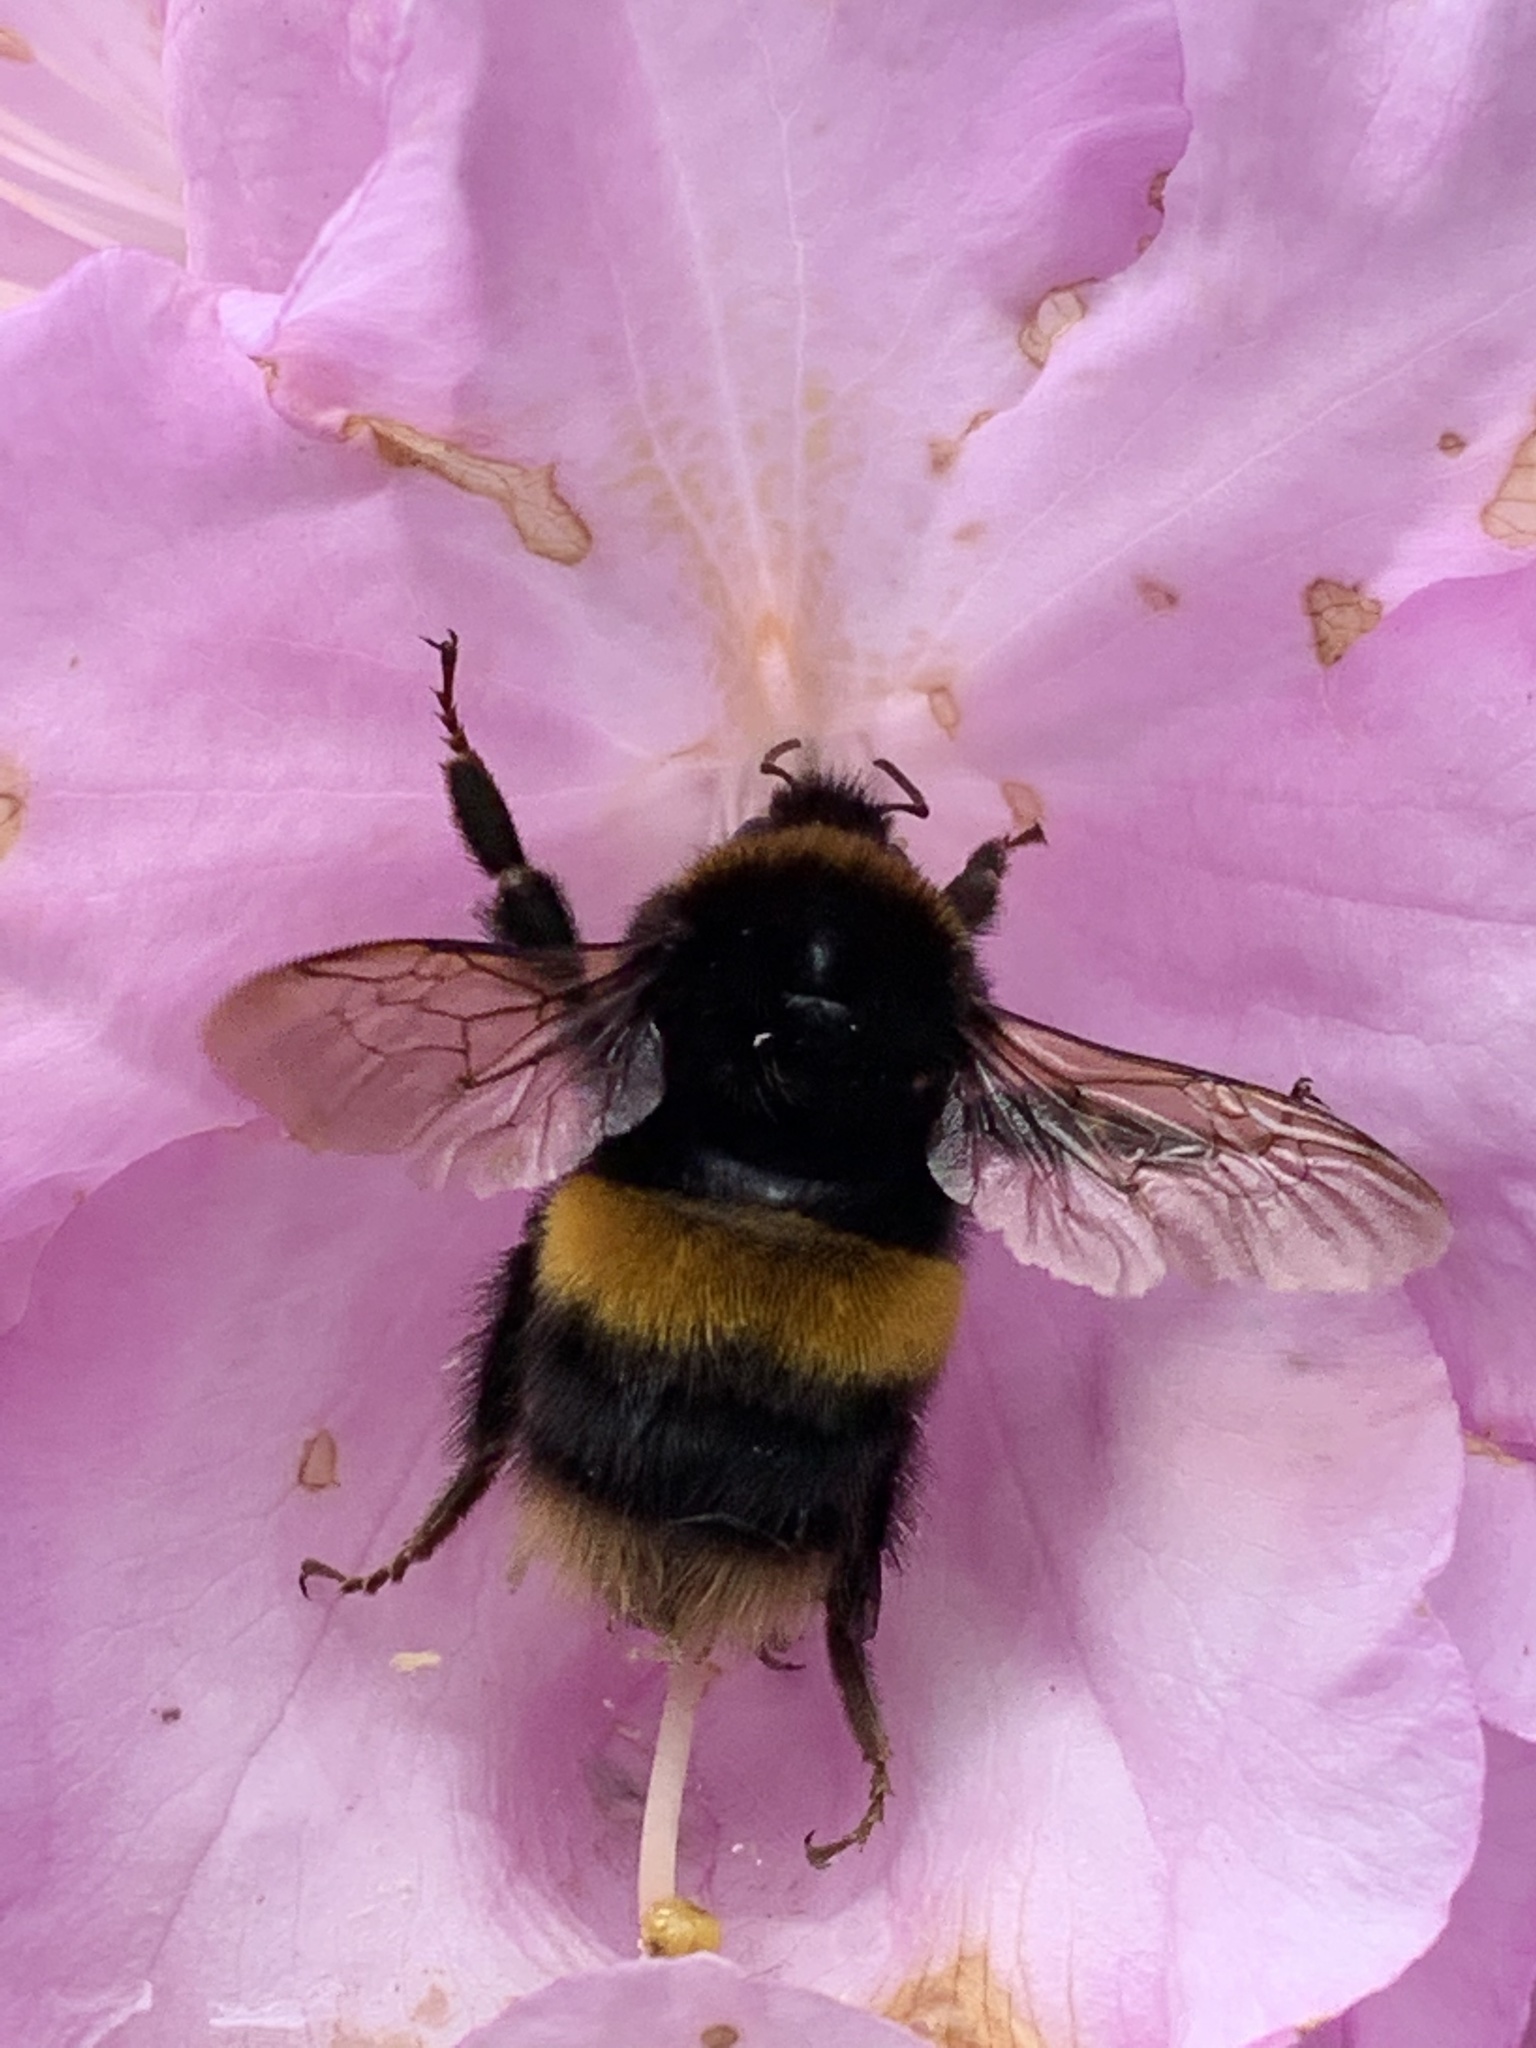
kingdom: Animalia
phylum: Arthropoda
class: Insecta
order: Hymenoptera
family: Apidae
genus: Bombus
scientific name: Bombus terrestris
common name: Buff-tailed bumblebee
